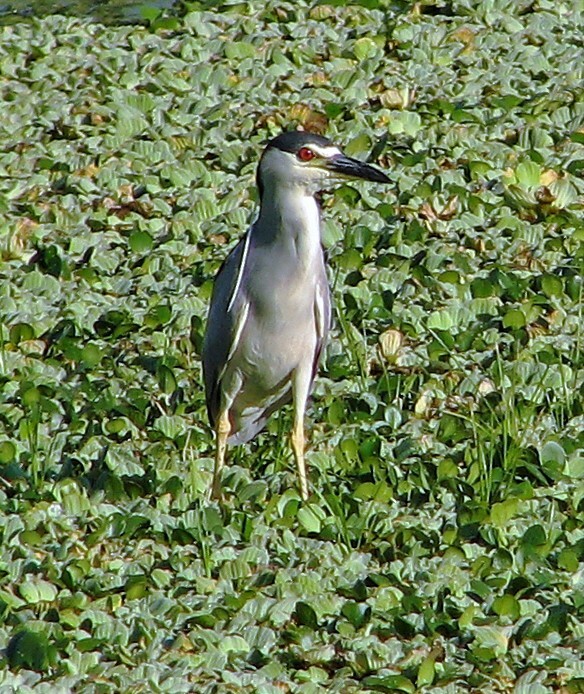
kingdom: Animalia
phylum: Chordata
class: Aves
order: Pelecaniformes
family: Ardeidae
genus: Nycticorax
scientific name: Nycticorax nycticorax
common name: Black-crowned night heron
